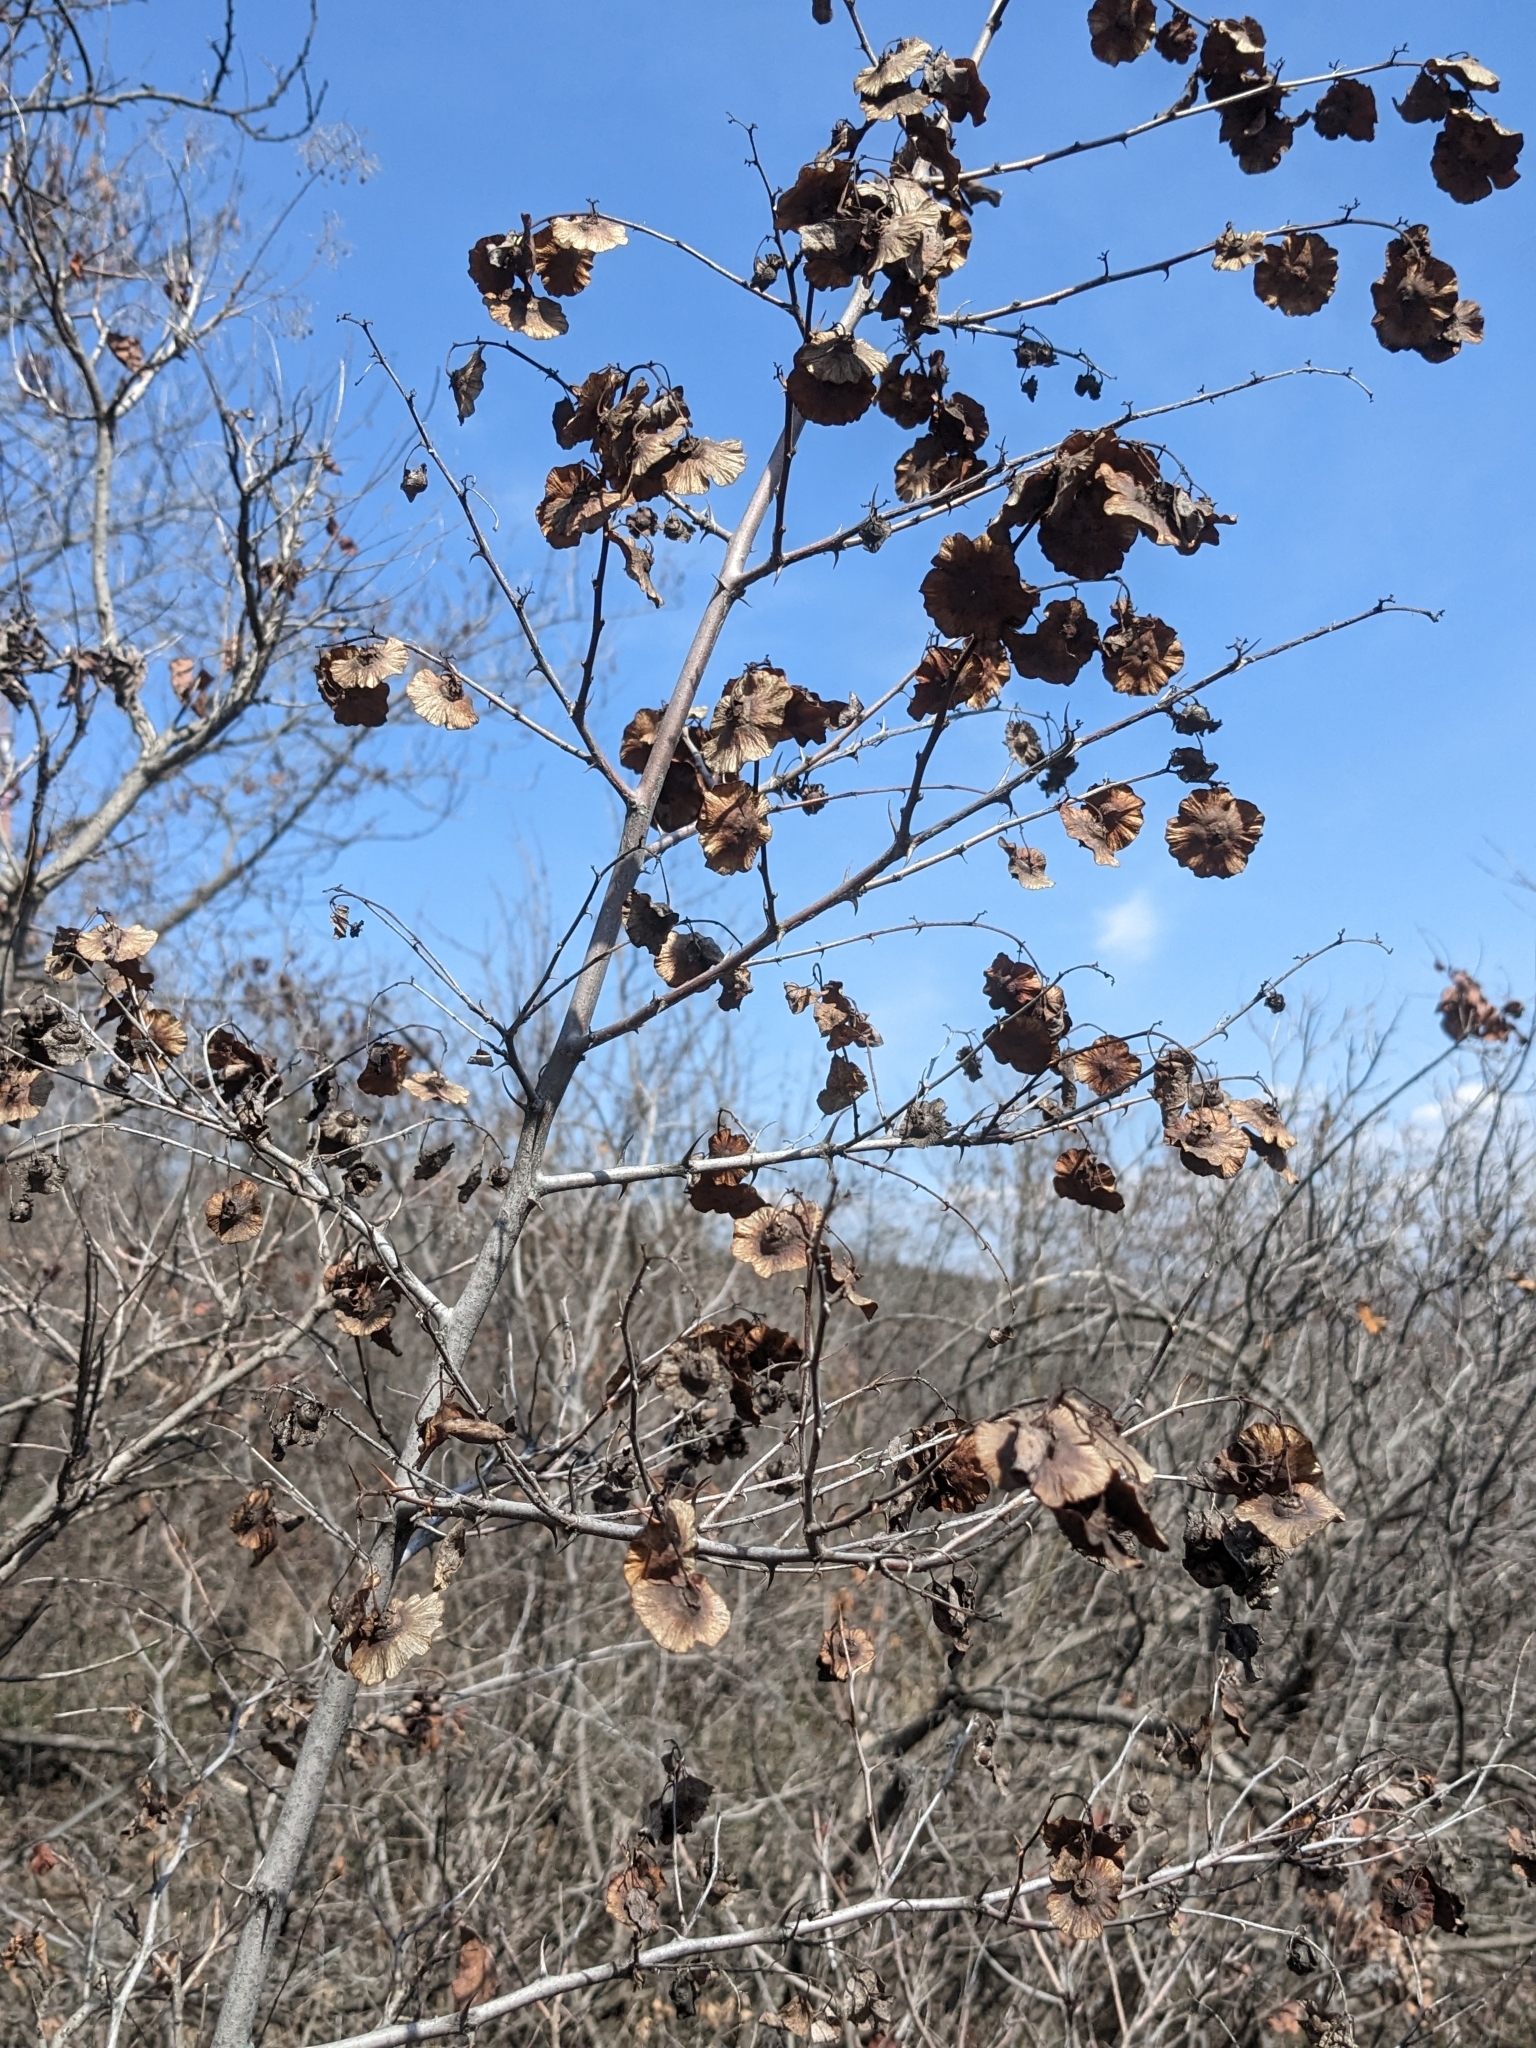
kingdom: Plantae
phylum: Tracheophyta
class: Magnoliopsida
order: Rosales
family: Rhamnaceae
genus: Paliurus
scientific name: Paliurus spina-christi
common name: Jeruselem thorn
